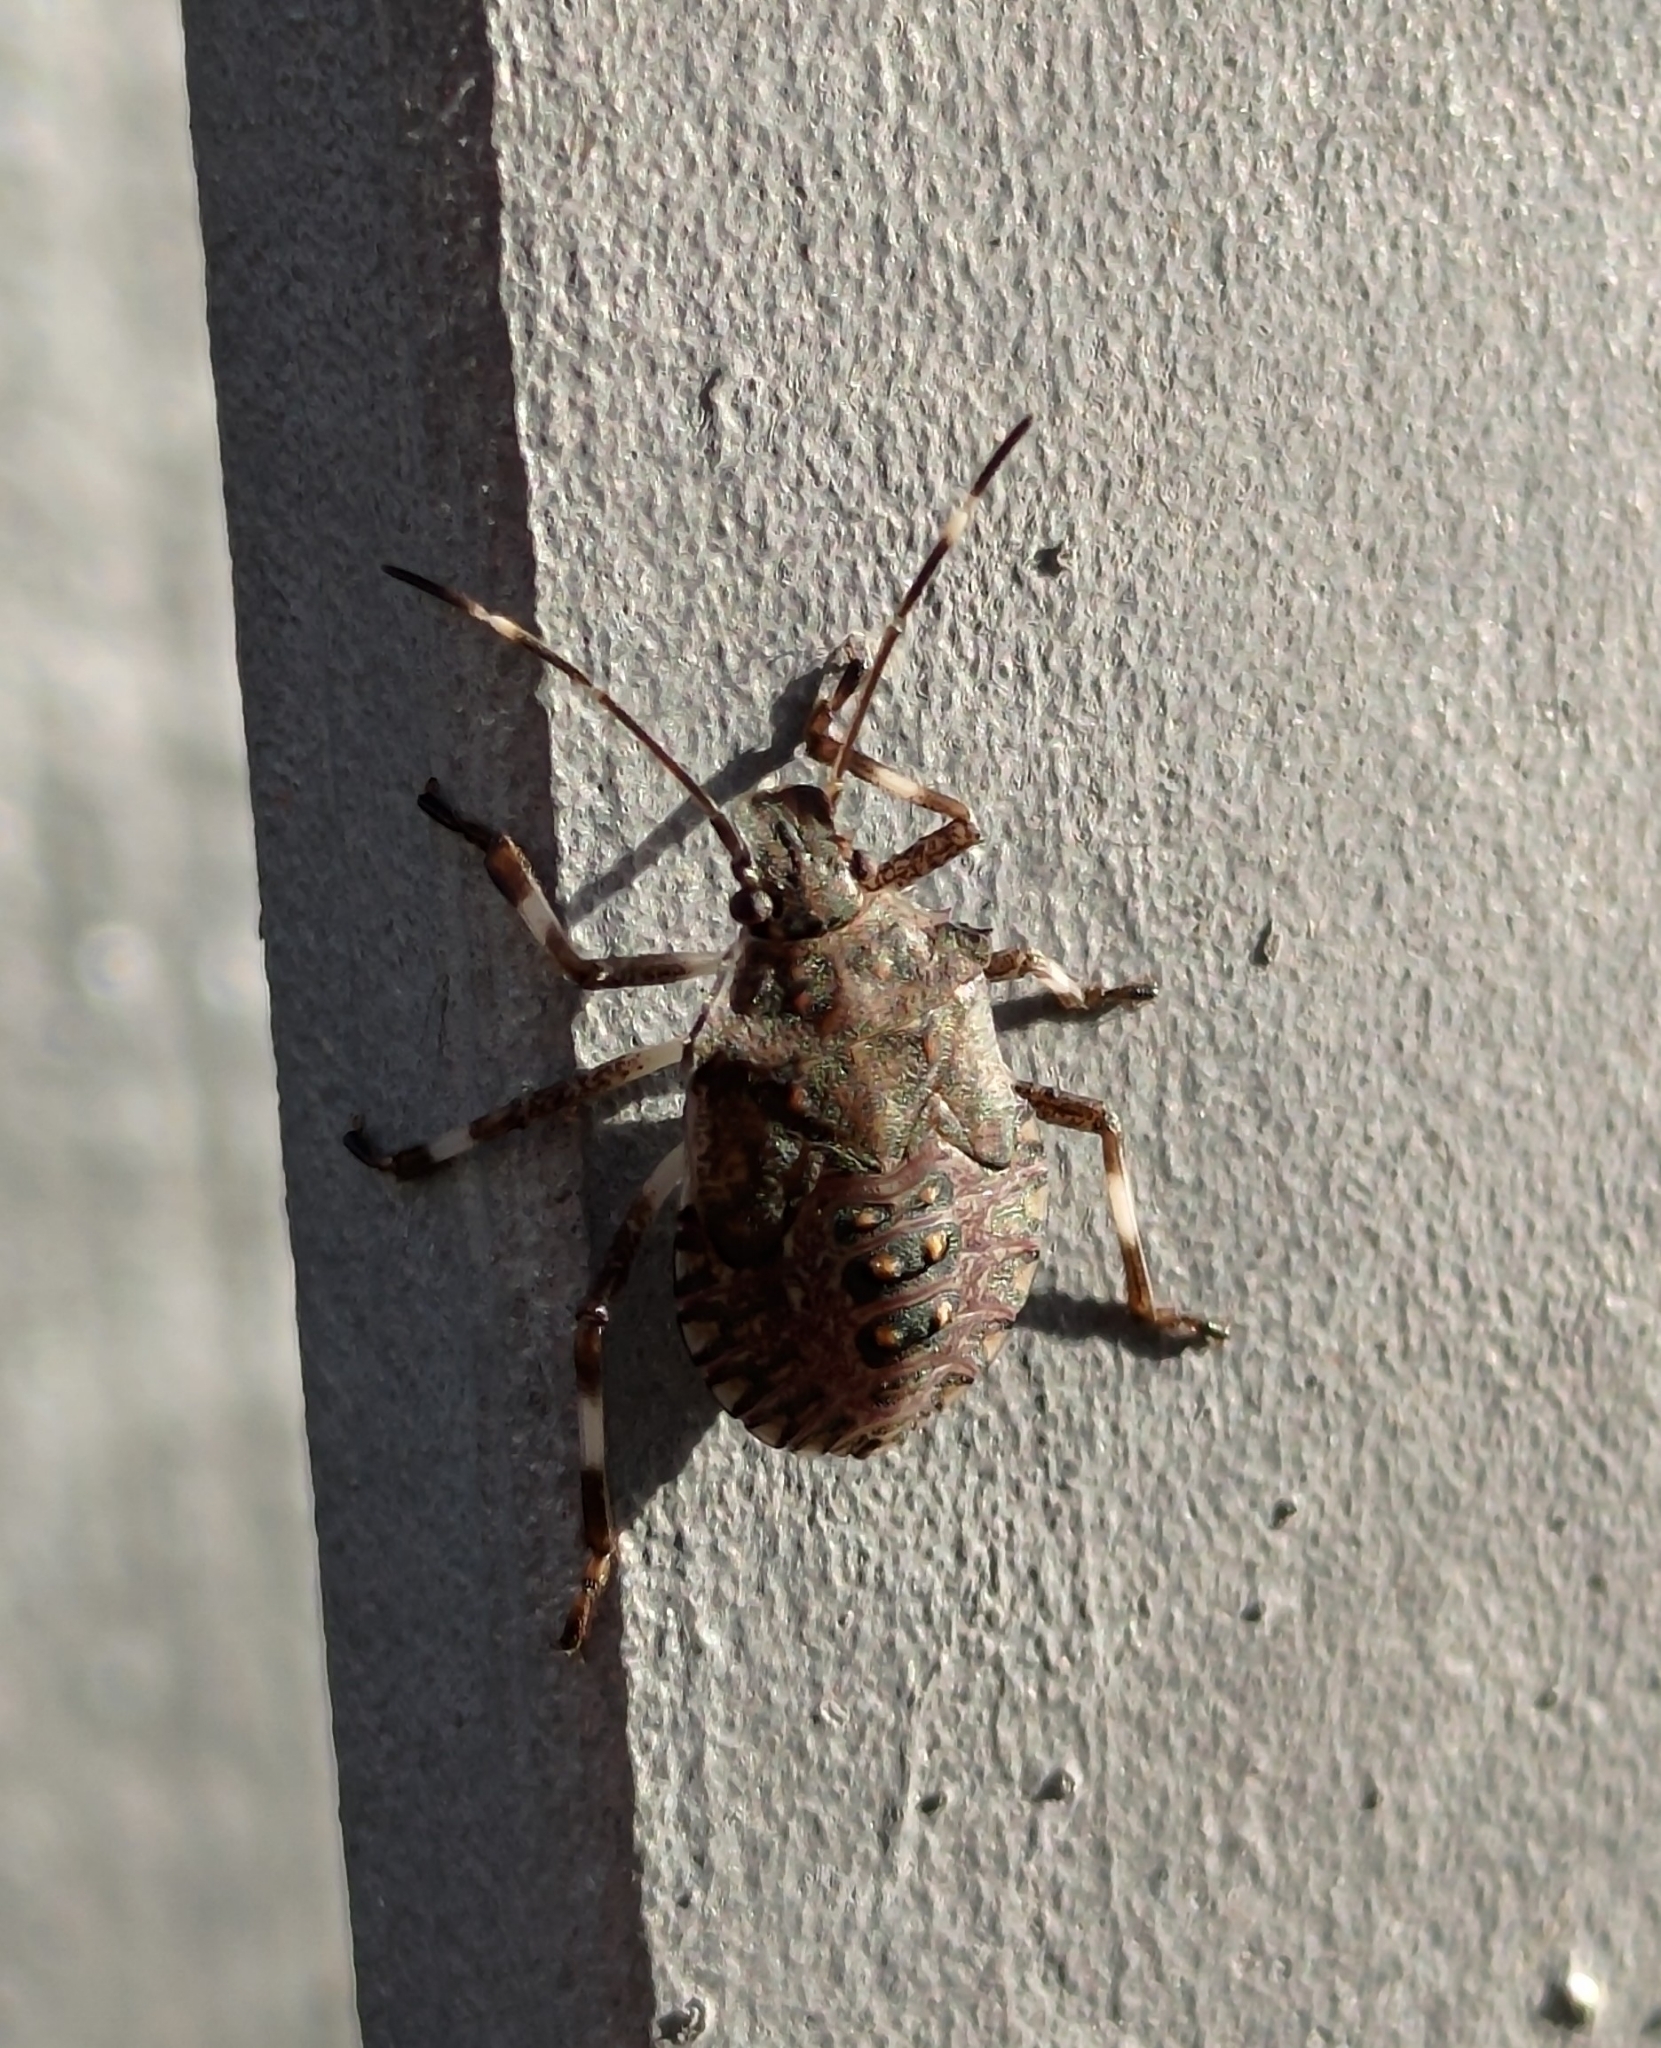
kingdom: Animalia
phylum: Arthropoda
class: Insecta
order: Hemiptera
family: Pentatomidae
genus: Halyomorpha
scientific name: Halyomorpha halys
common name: Brown marmorated stink bug
